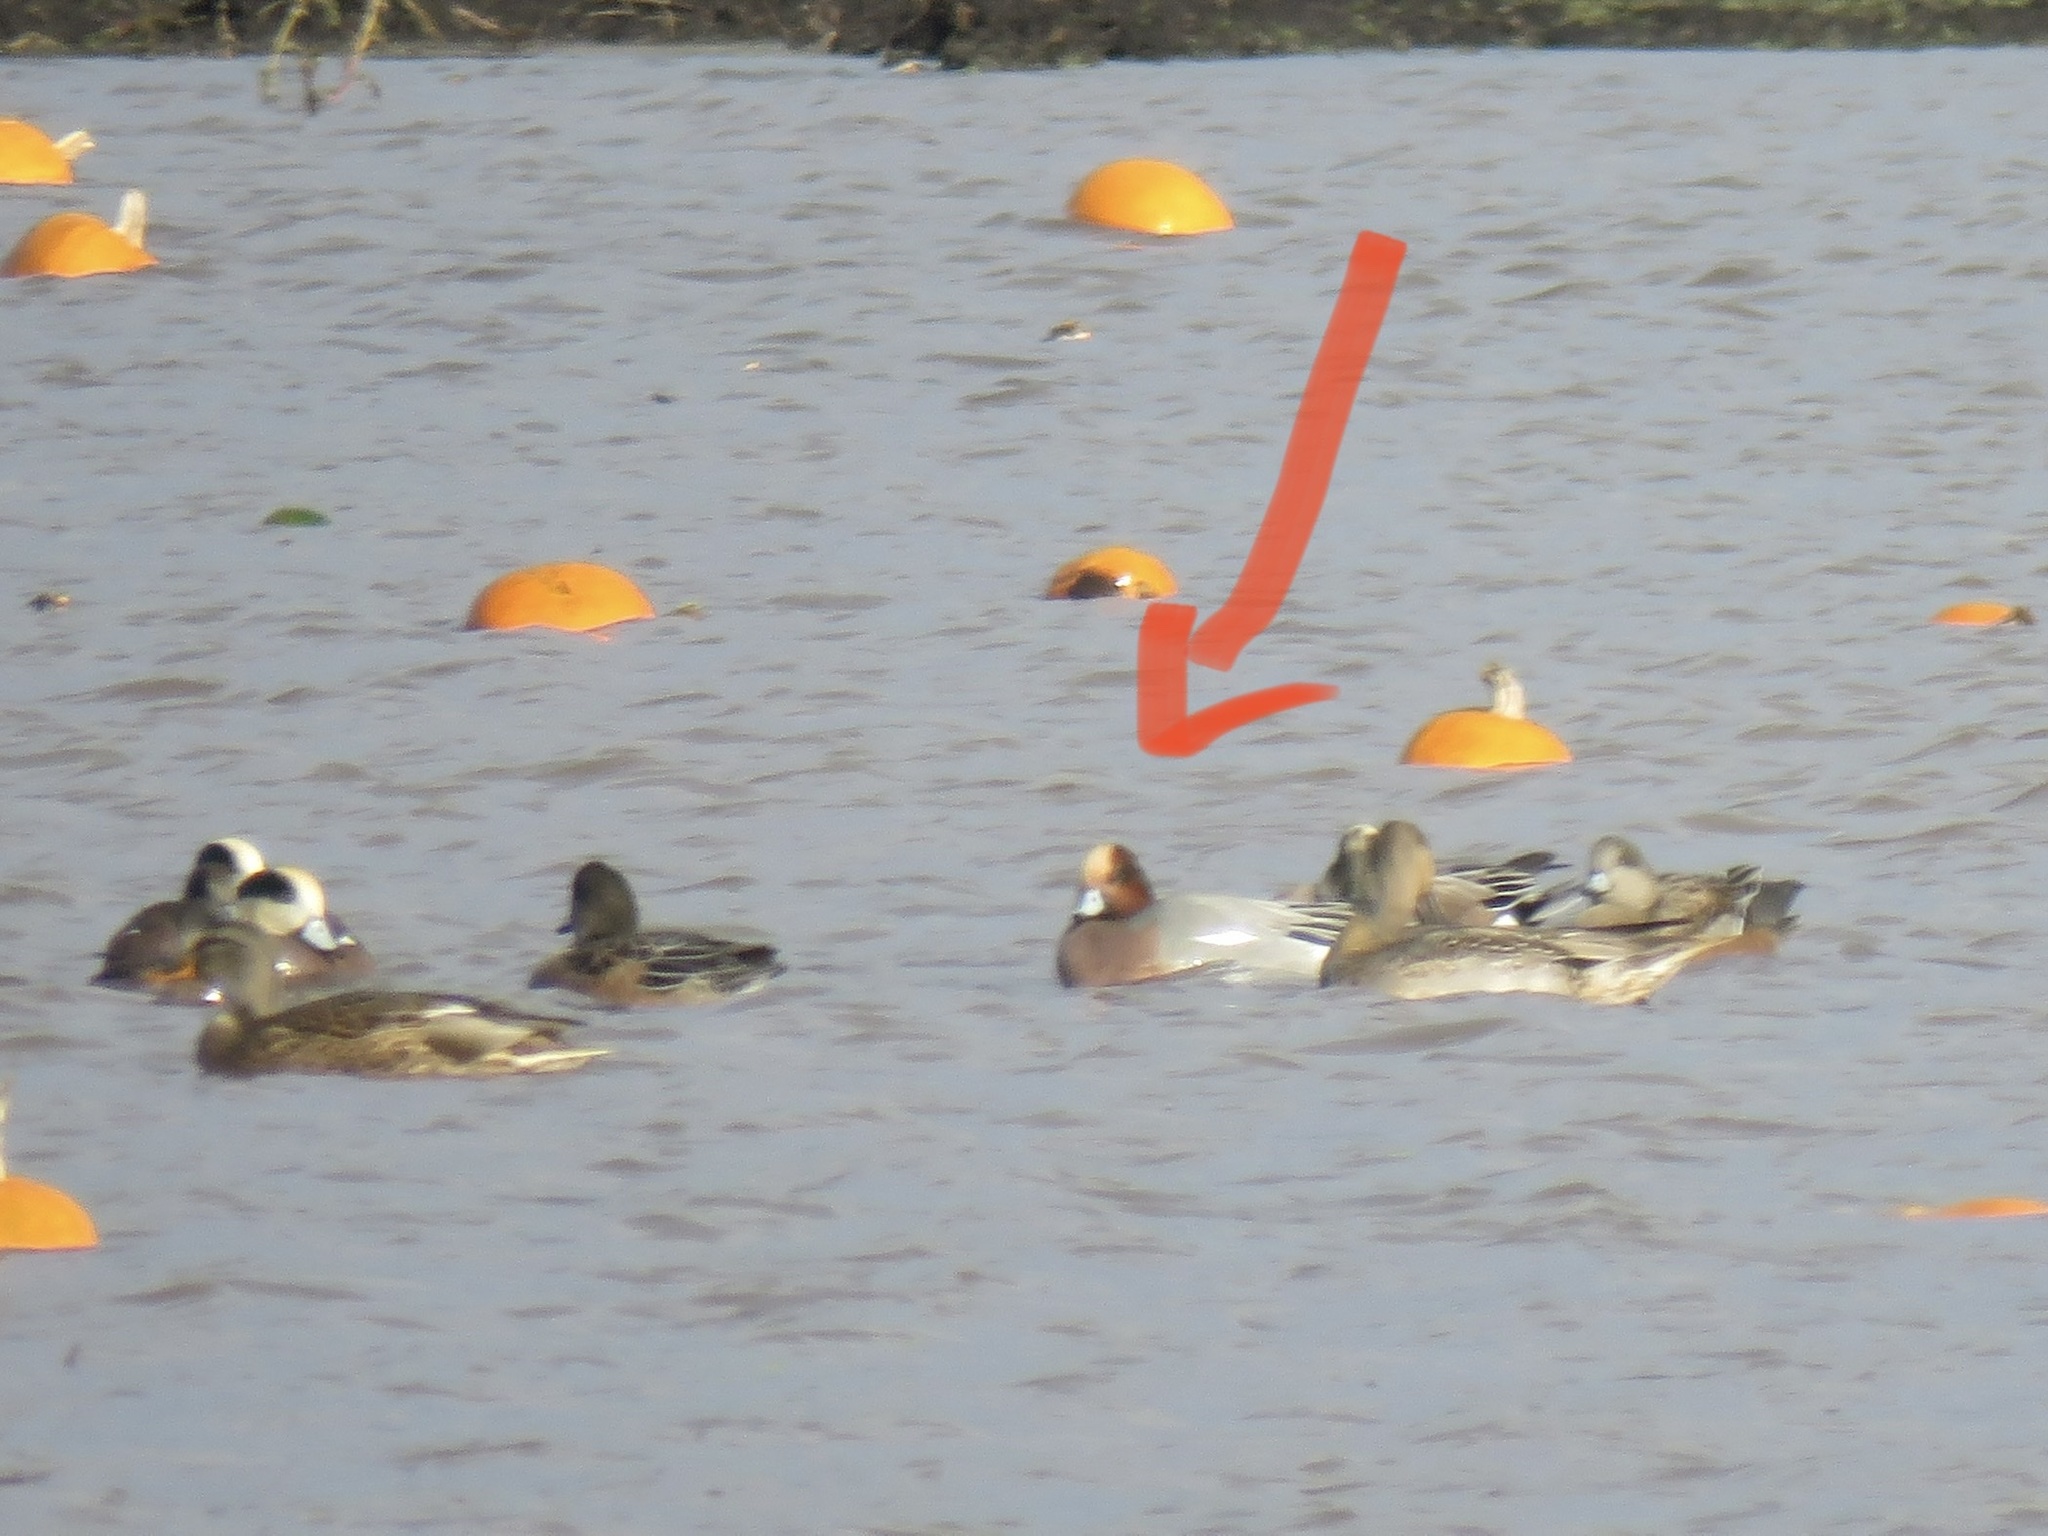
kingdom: Animalia
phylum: Chordata
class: Aves
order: Anseriformes
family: Anatidae
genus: Mareca
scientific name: Mareca penelope
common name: Eurasian wigeon
